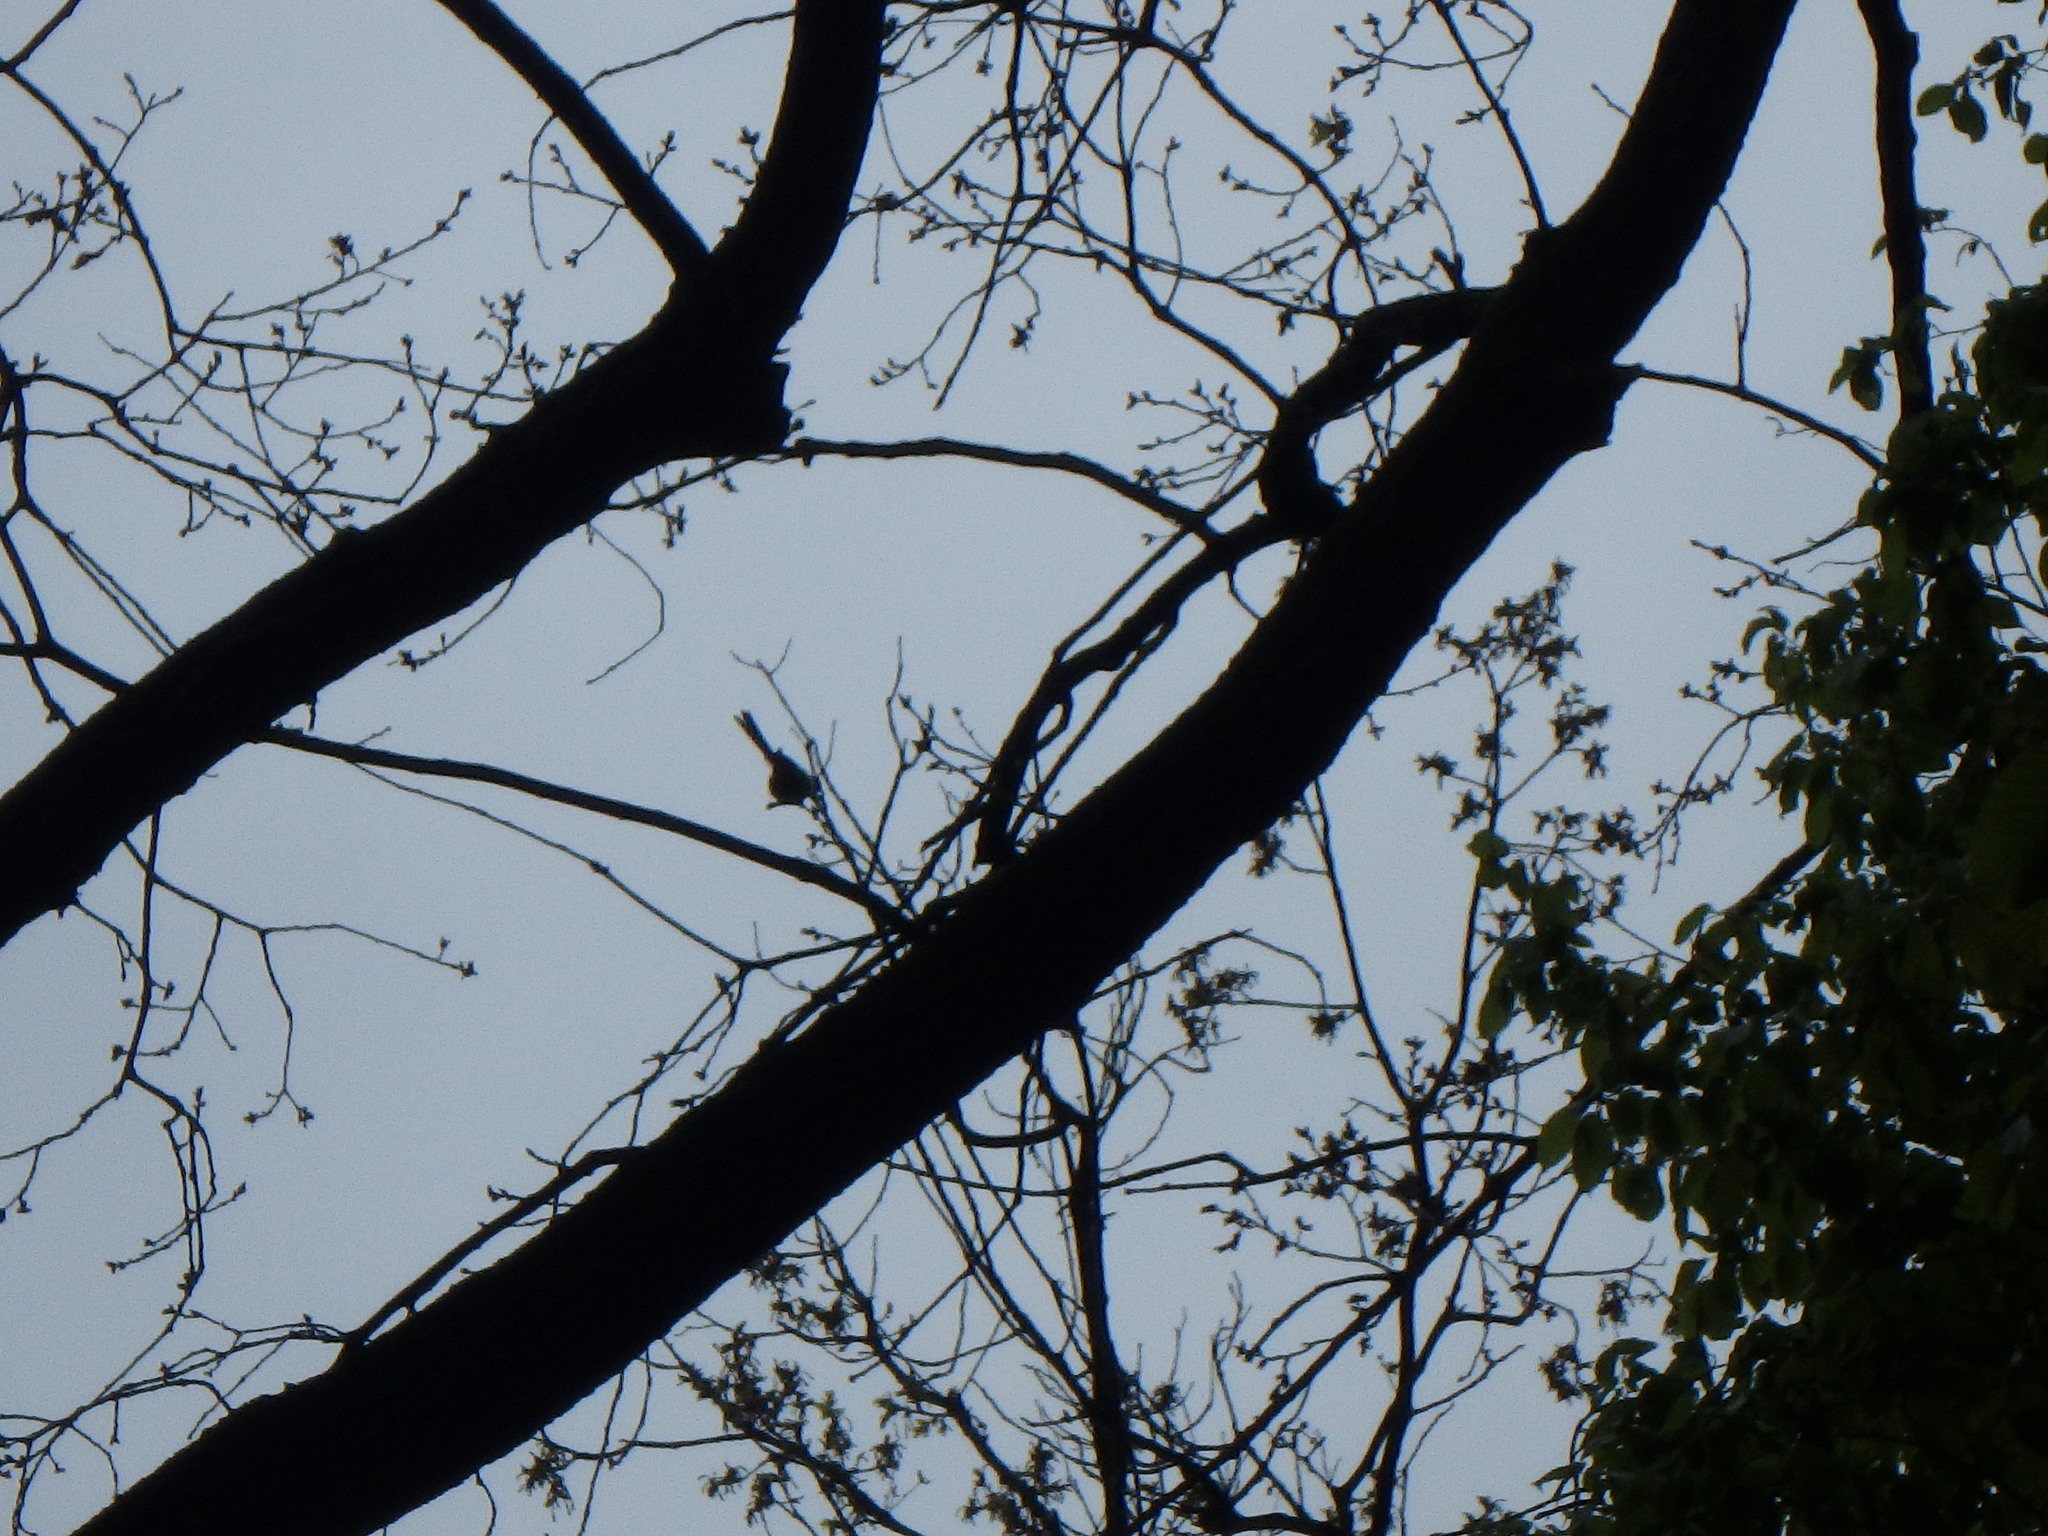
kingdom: Animalia
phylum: Chordata
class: Aves
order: Passeriformes
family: Aegithalidae
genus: Aegithalos
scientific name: Aegithalos caudatus
